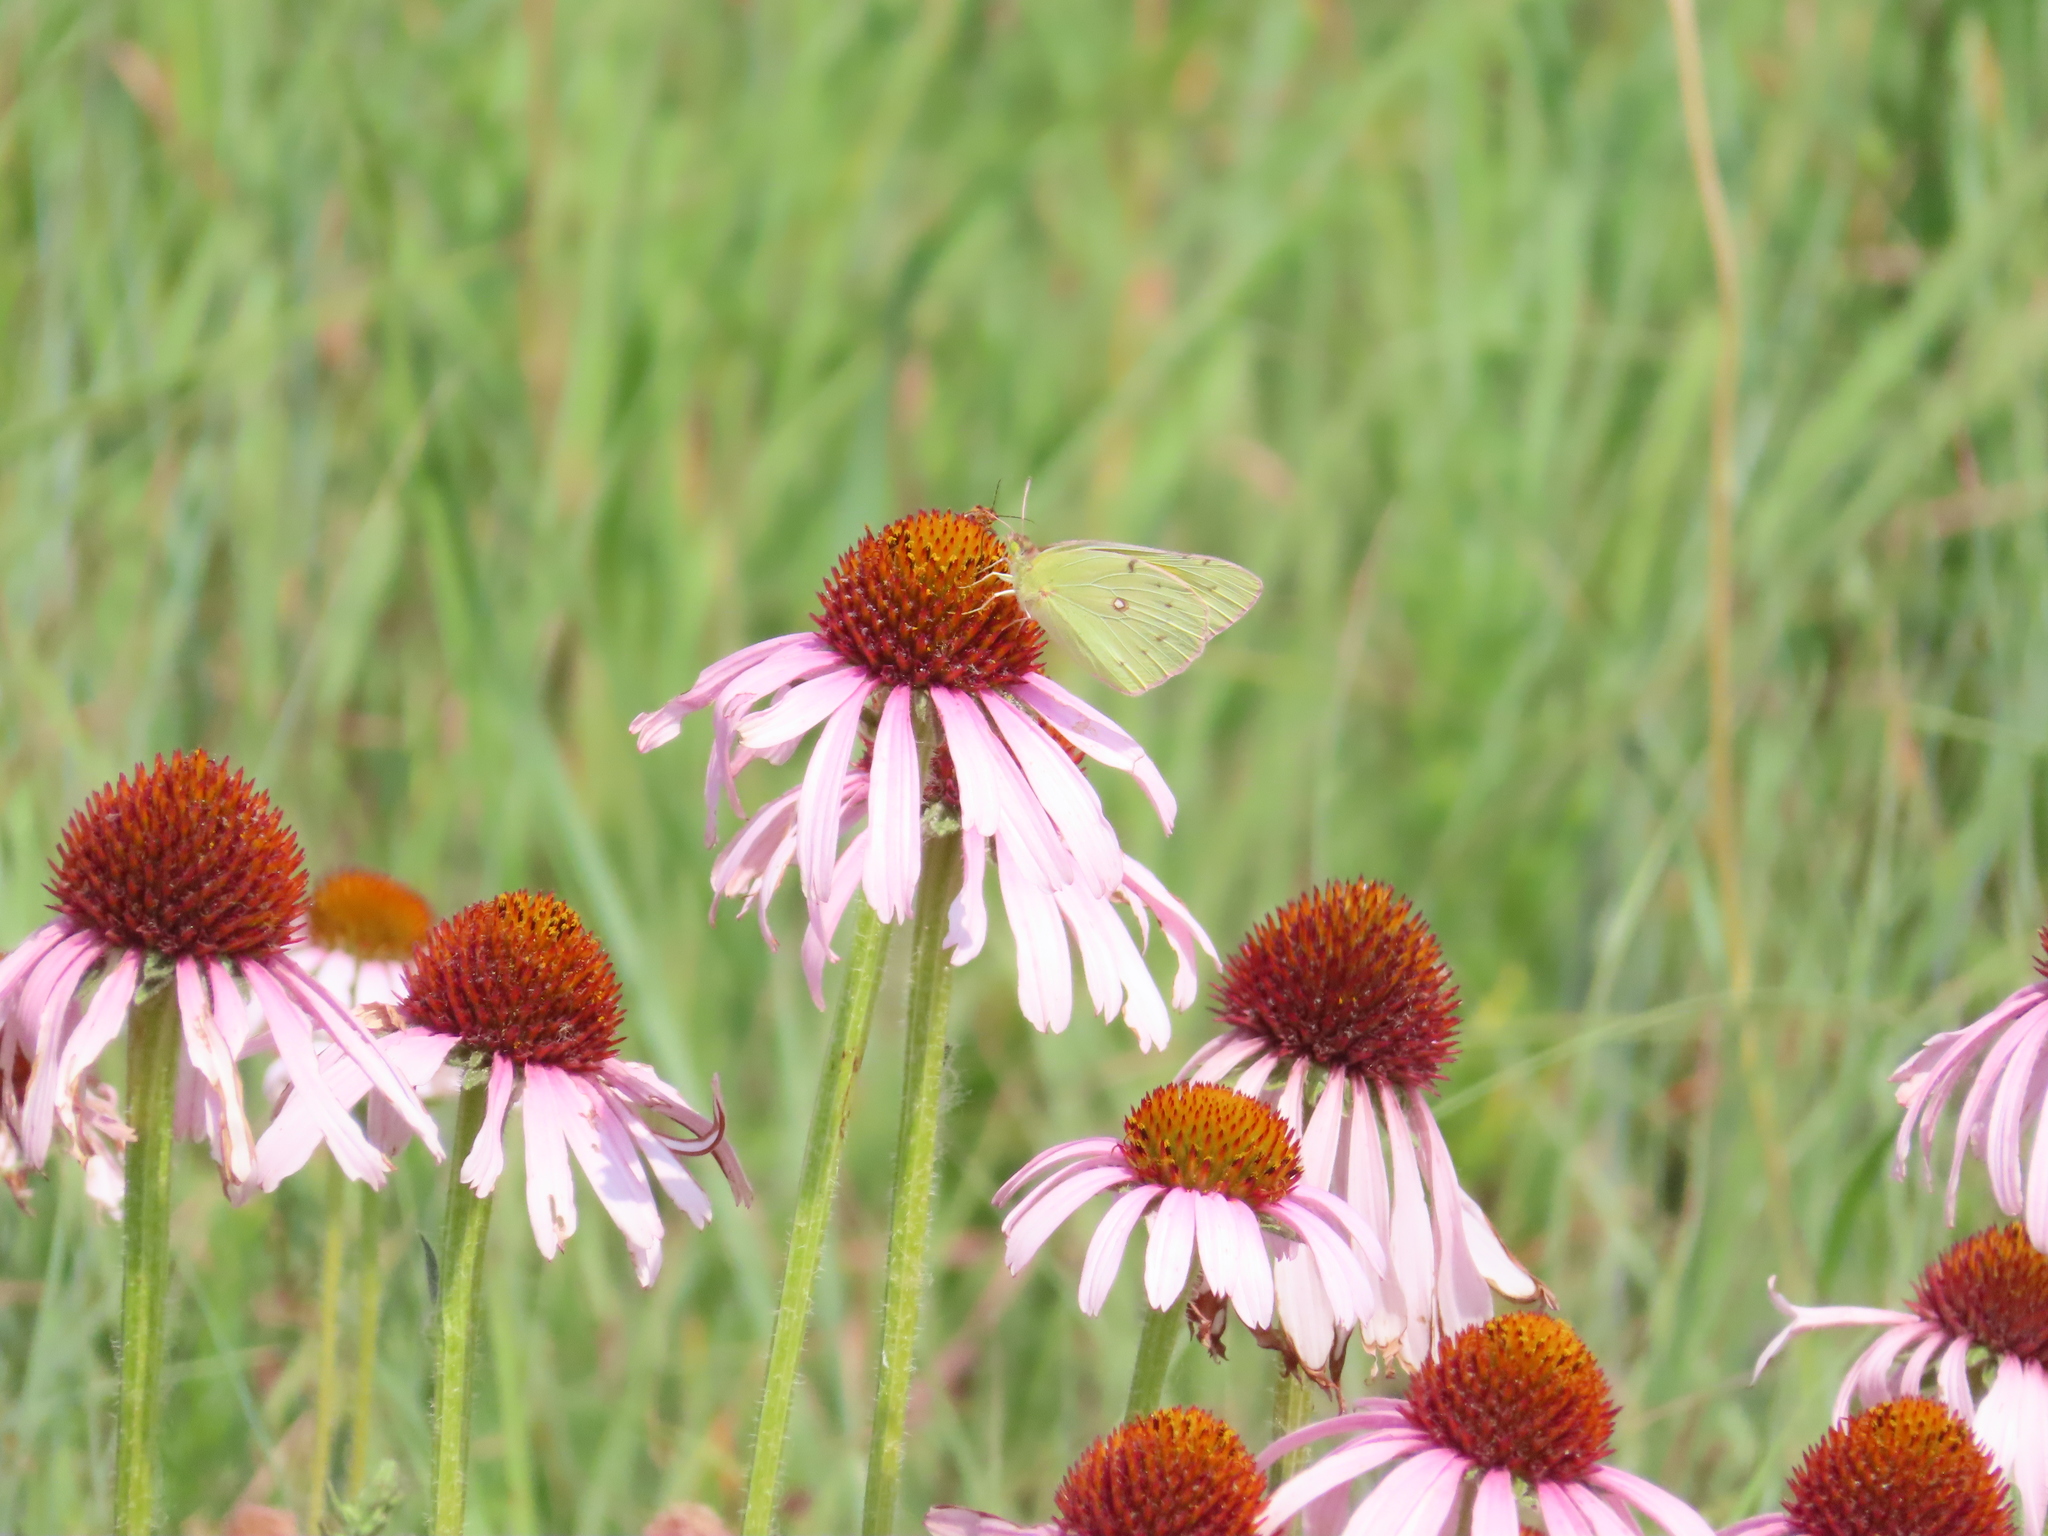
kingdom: Animalia
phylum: Arthropoda
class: Insecta
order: Lepidoptera
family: Pieridae
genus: Colias
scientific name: Colias philodice
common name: Clouded sulphur
